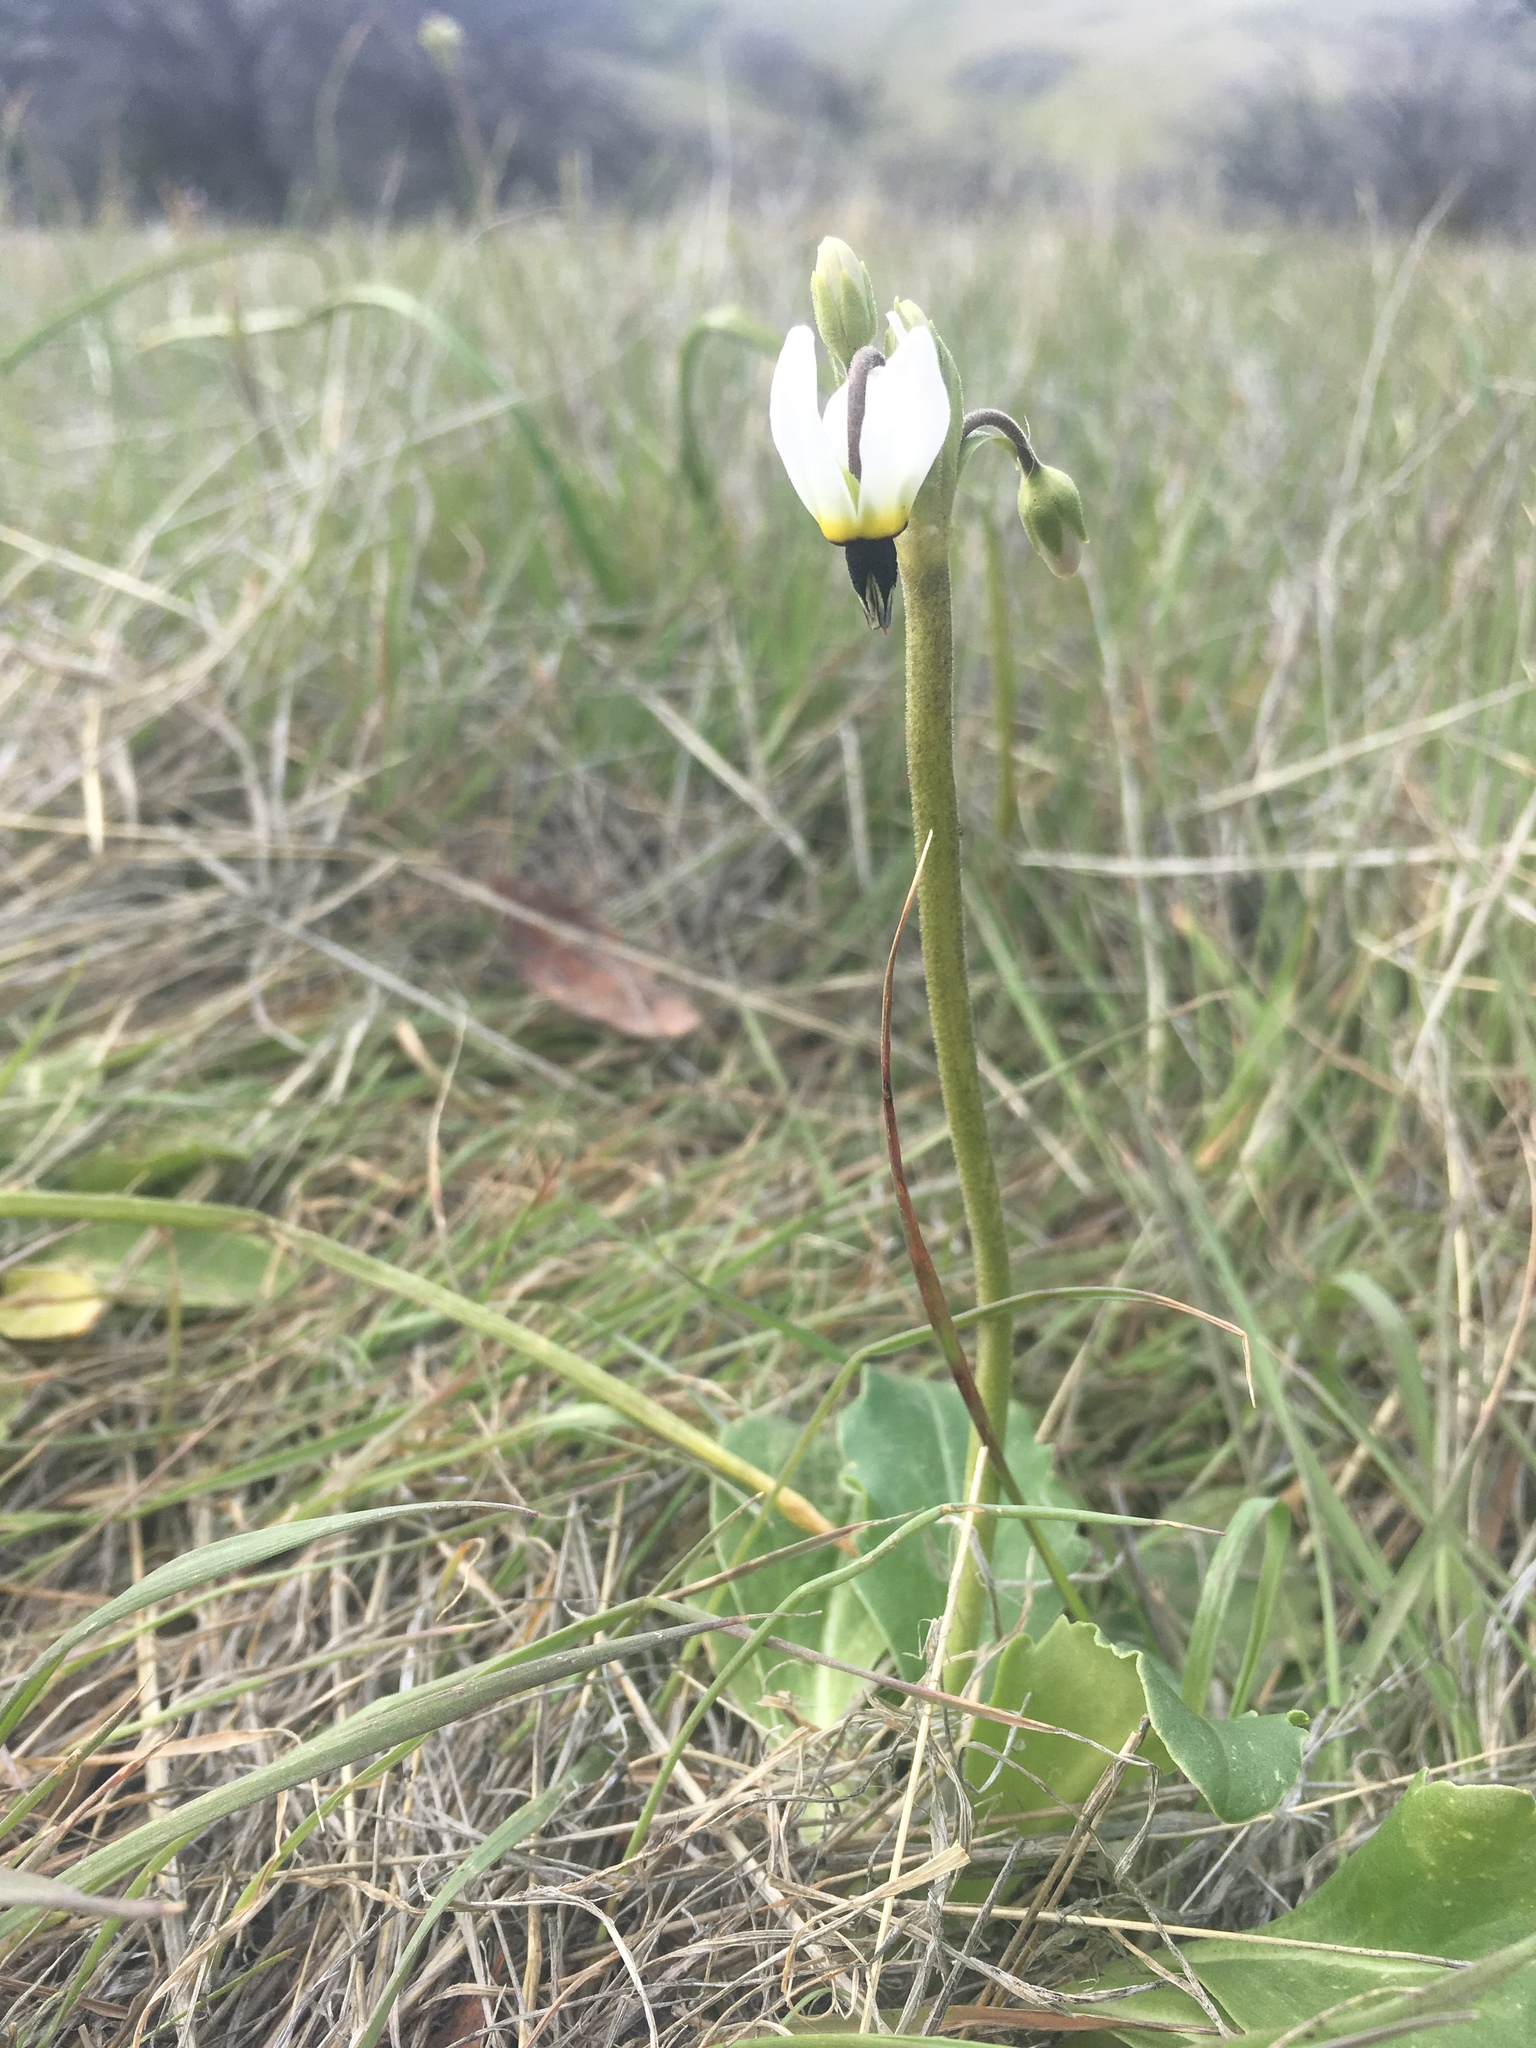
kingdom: Plantae
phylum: Tracheophyta
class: Magnoliopsida
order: Ericales
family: Primulaceae
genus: Dodecatheon
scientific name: Dodecatheon clevelandii
